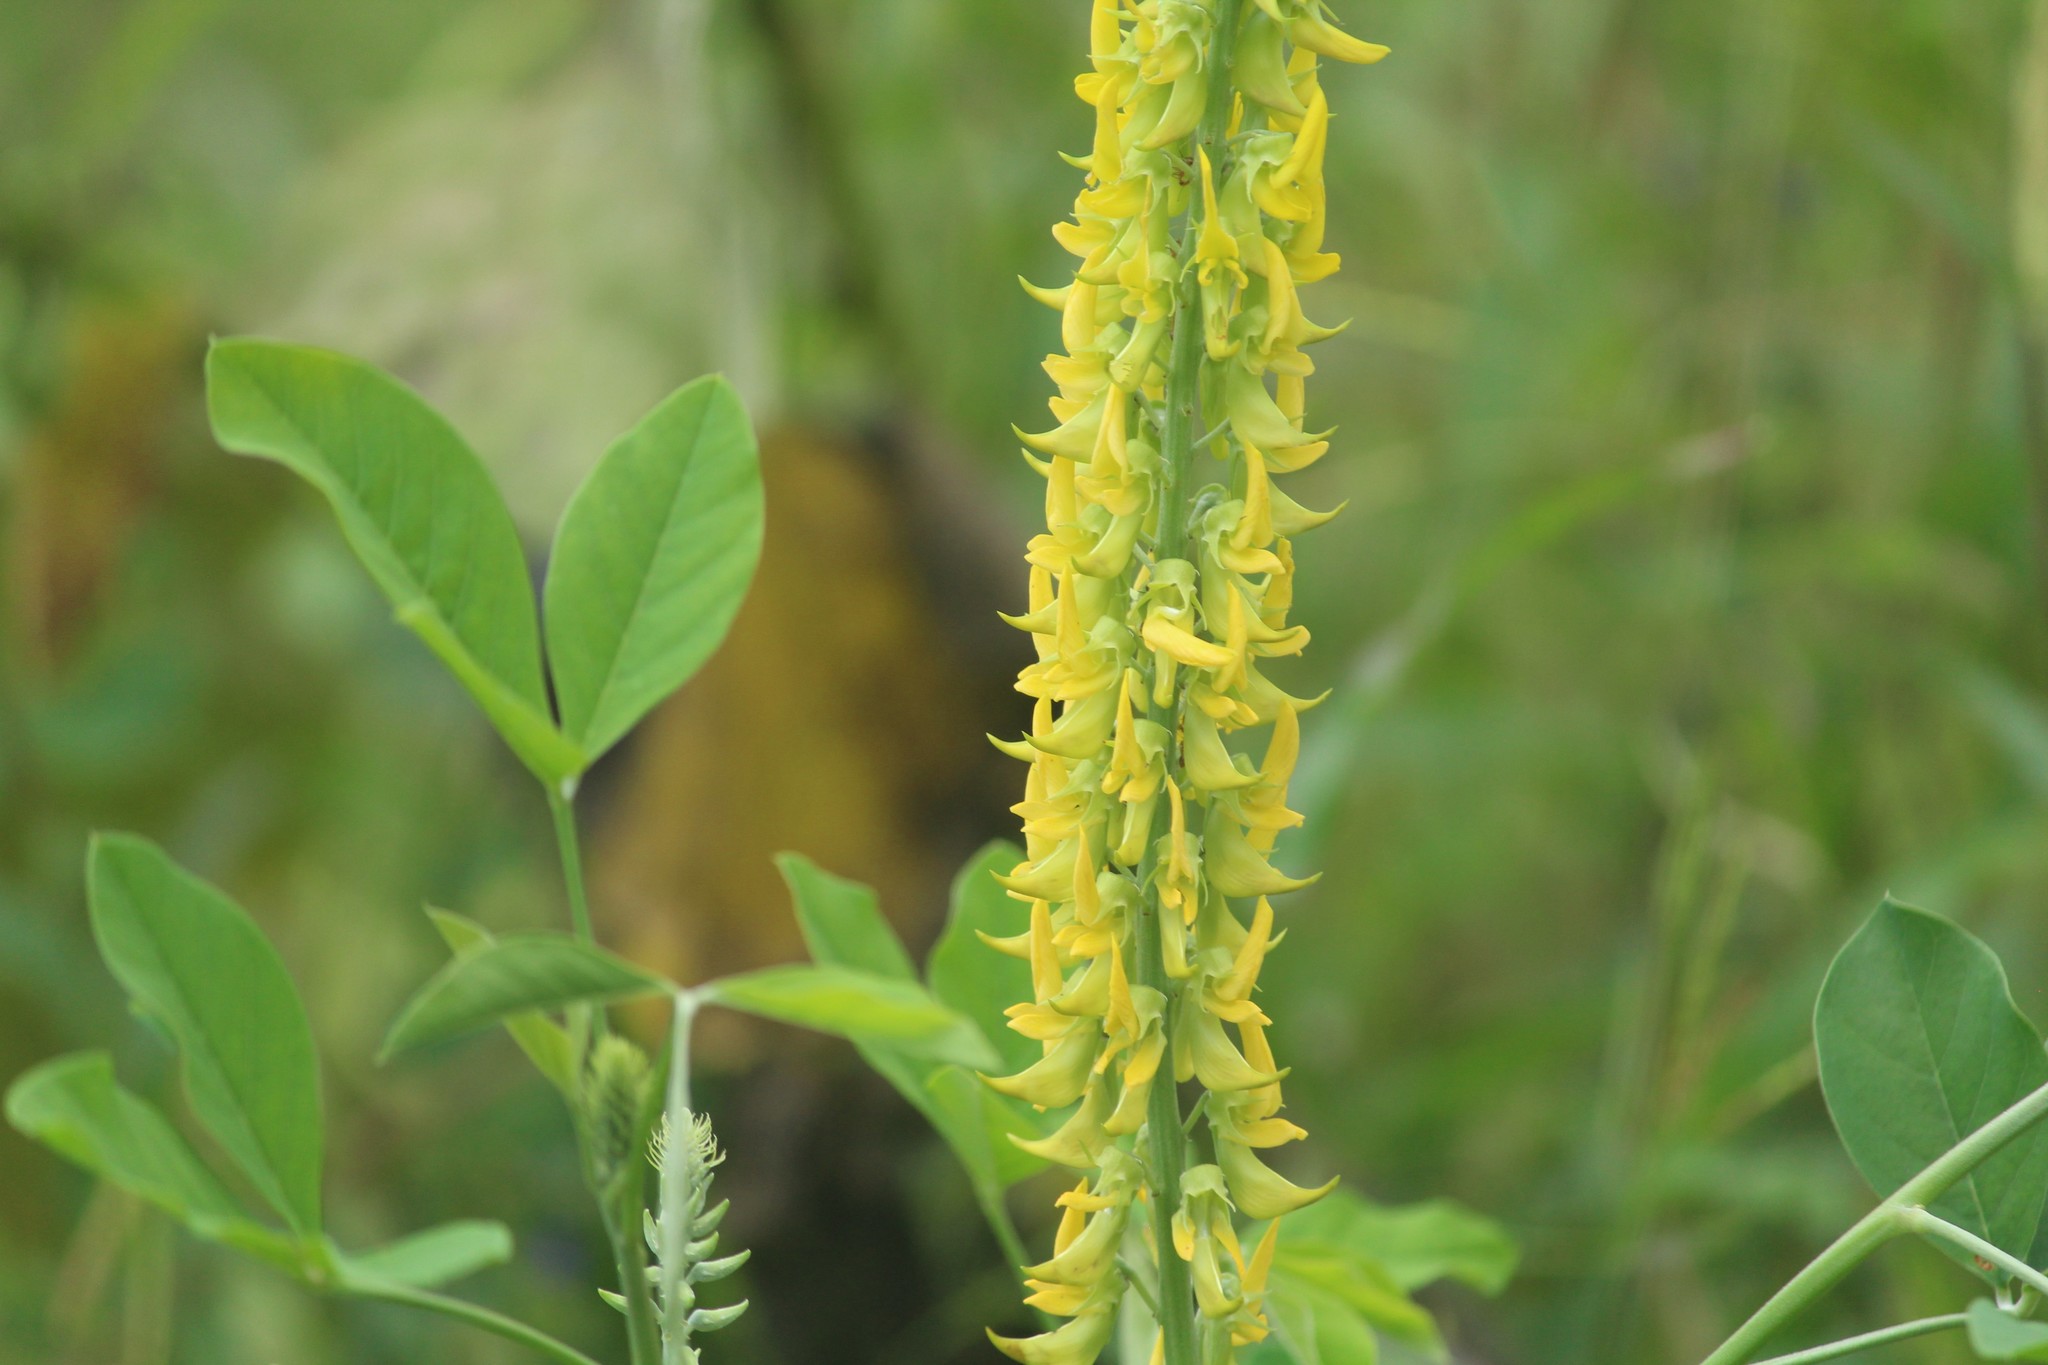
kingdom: Plantae
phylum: Tracheophyta
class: Magnoliopsida
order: Fabales
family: Fabaceae
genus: Crotalaria
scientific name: Crotalaria pallida
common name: Smooth rattlebox
